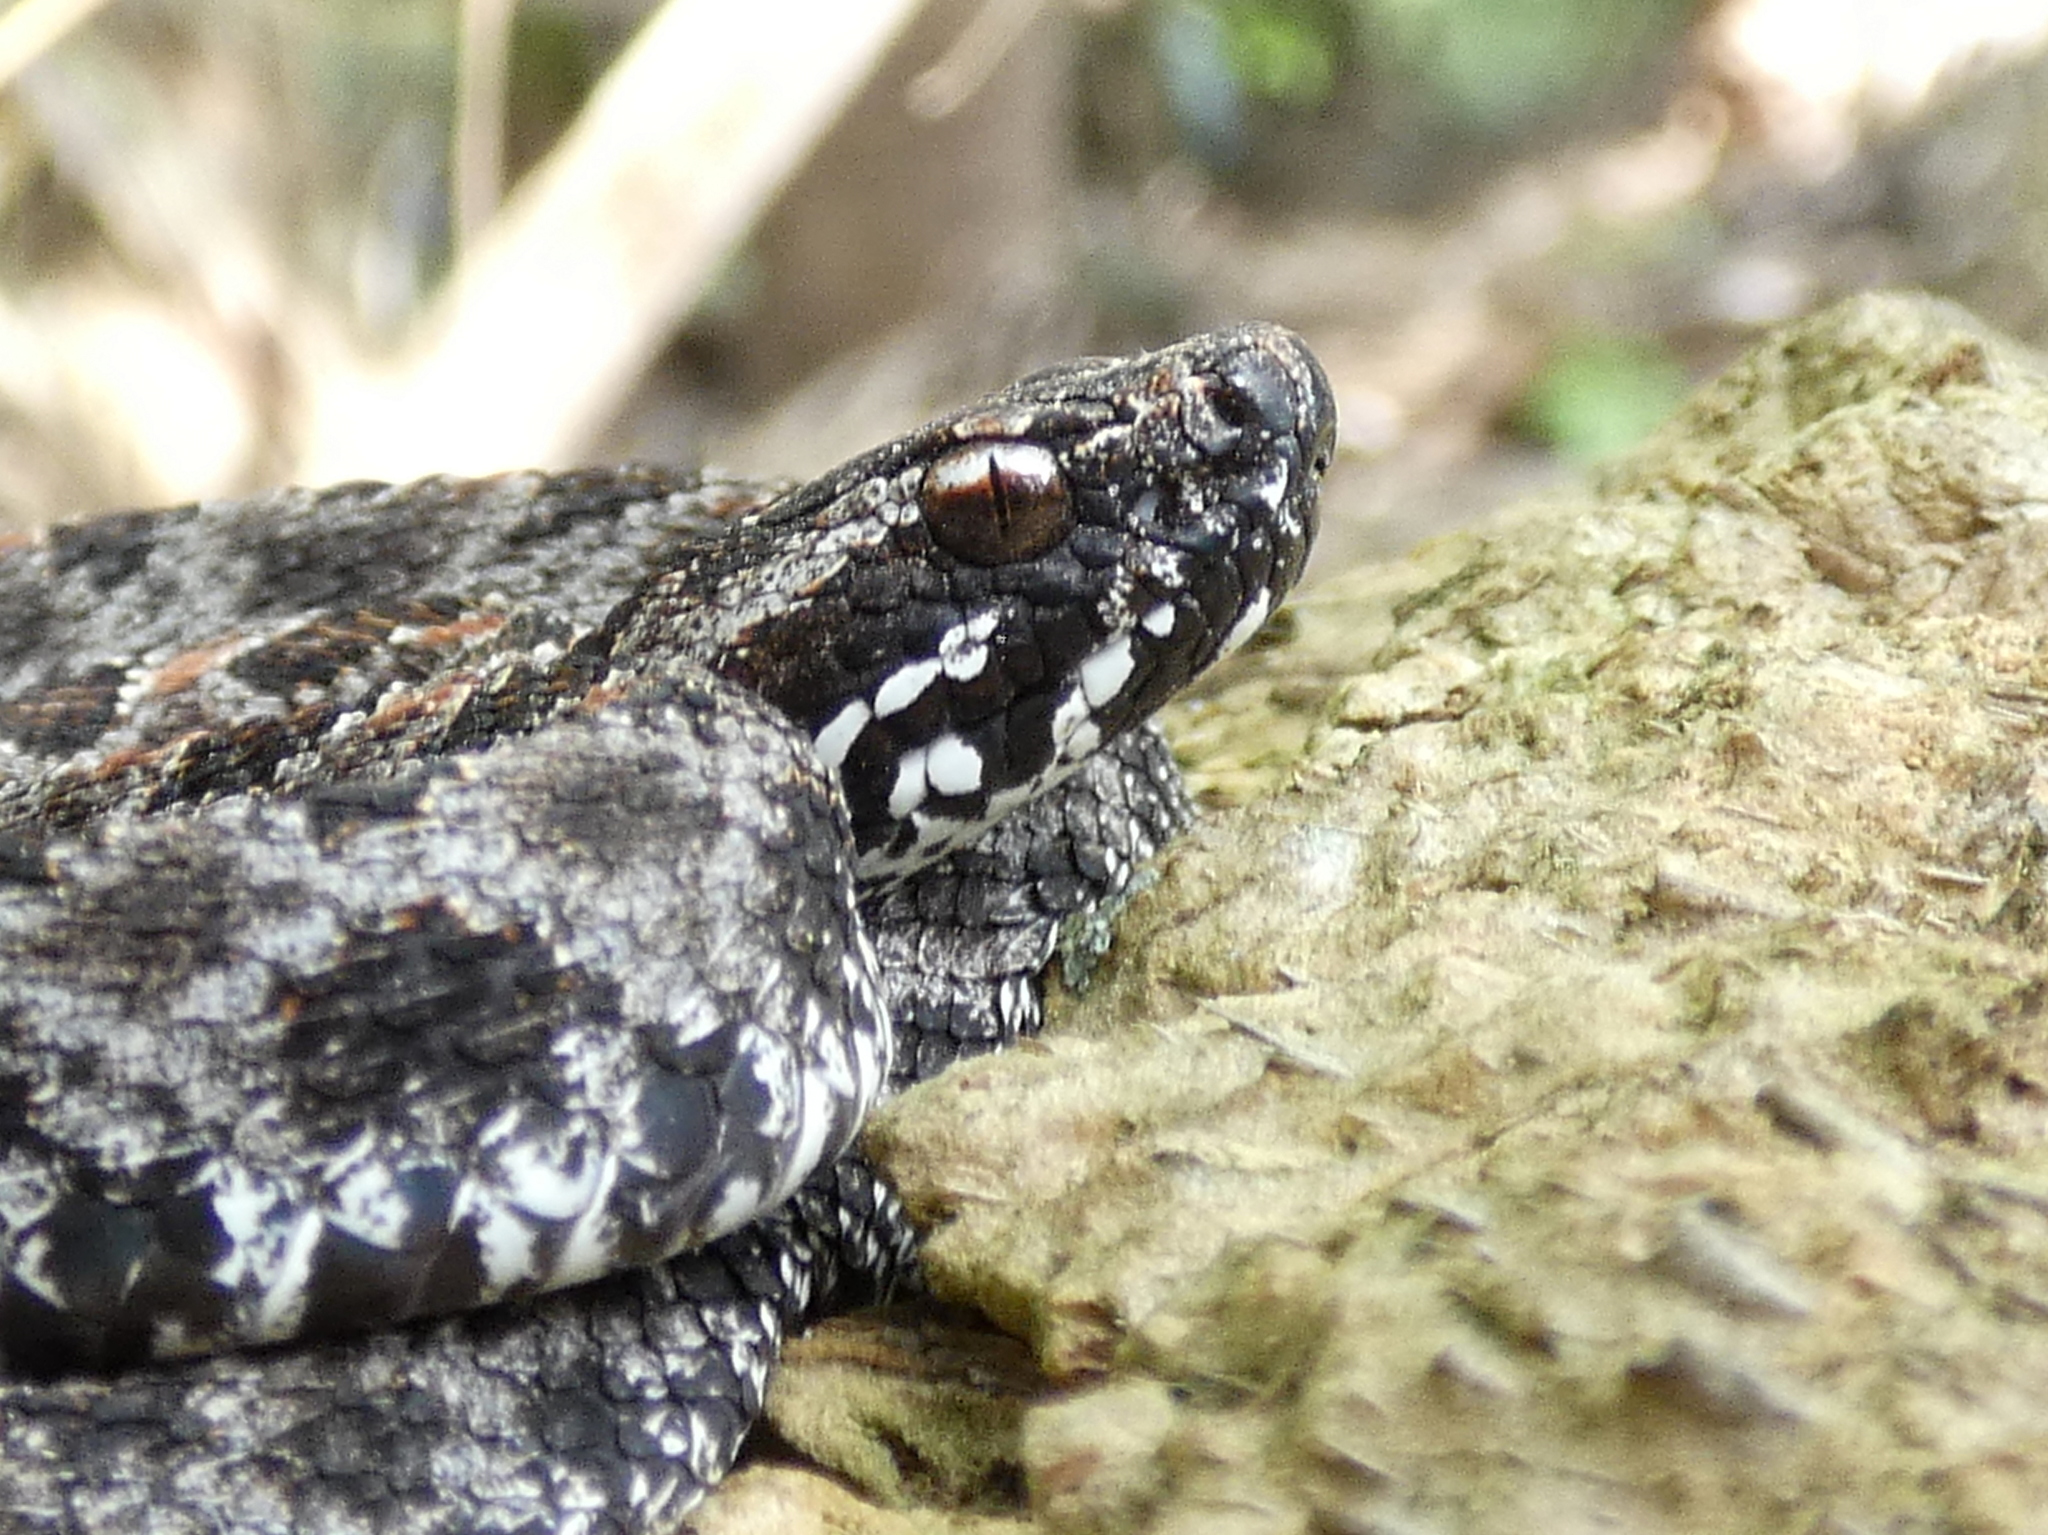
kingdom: Animalia
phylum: Chordata
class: Squamata
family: Viperidae
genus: Sistrurus
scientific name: Sistrurus miliarius
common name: Pygmy rattlesnake
